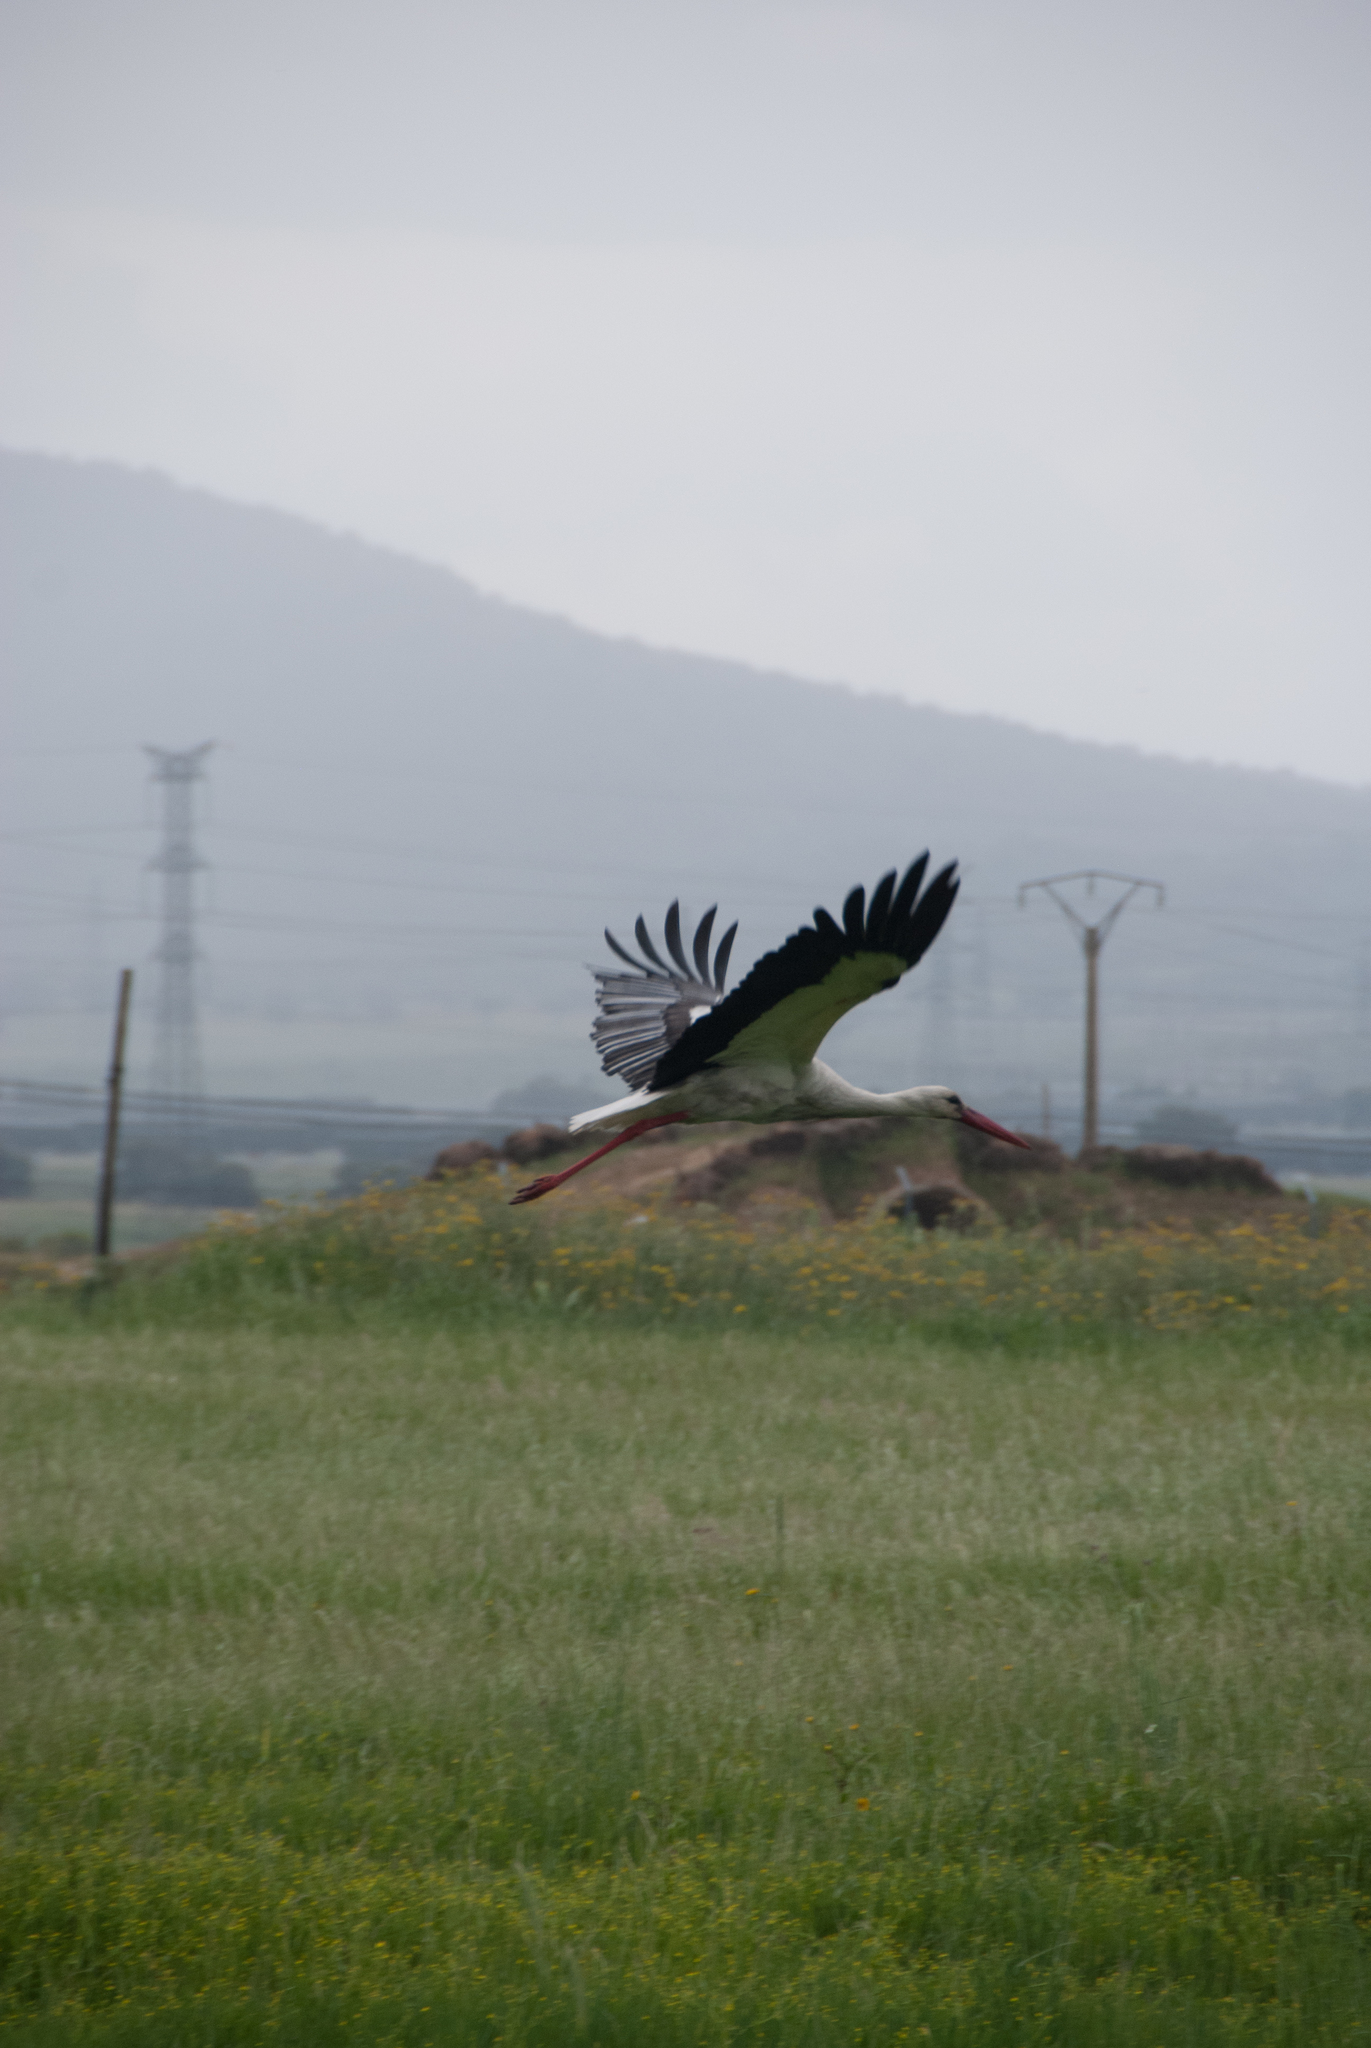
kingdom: Animalia
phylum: Chordata
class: Aves
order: Ciconiiformes
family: Ciconiidae
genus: Ciconia
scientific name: Ciconia ciconia
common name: White stork
